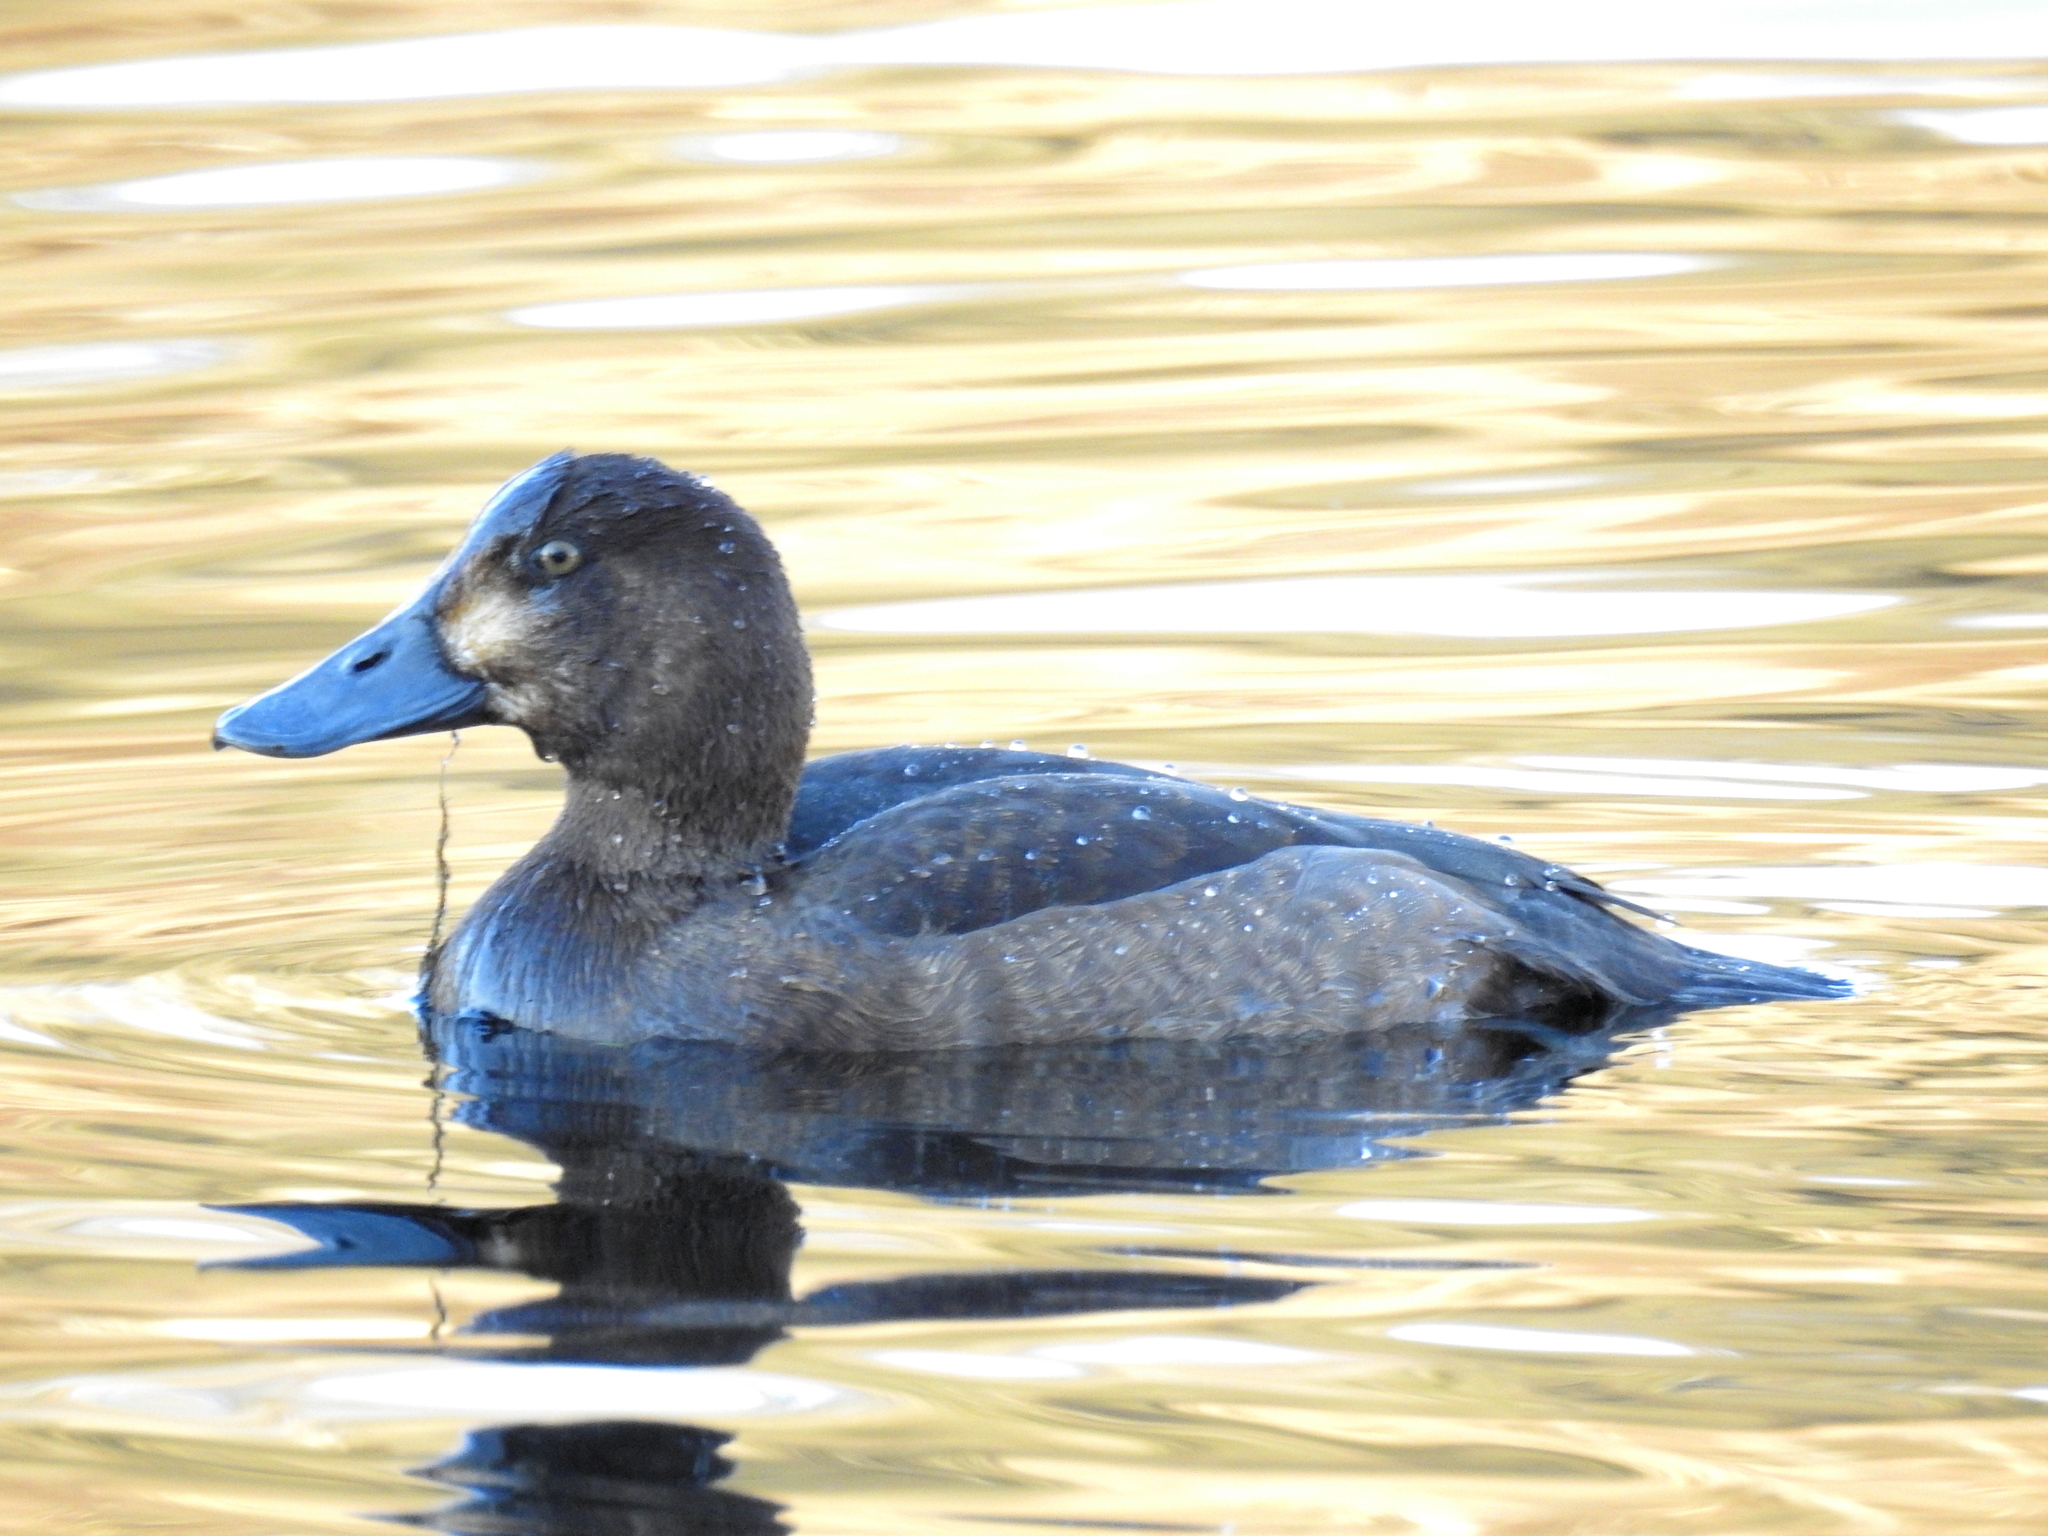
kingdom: Animalia
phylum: Chordata
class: Aves
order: Anseriformes
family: Anatidae
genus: Aythya
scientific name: Aythya marila
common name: Greater scaup
